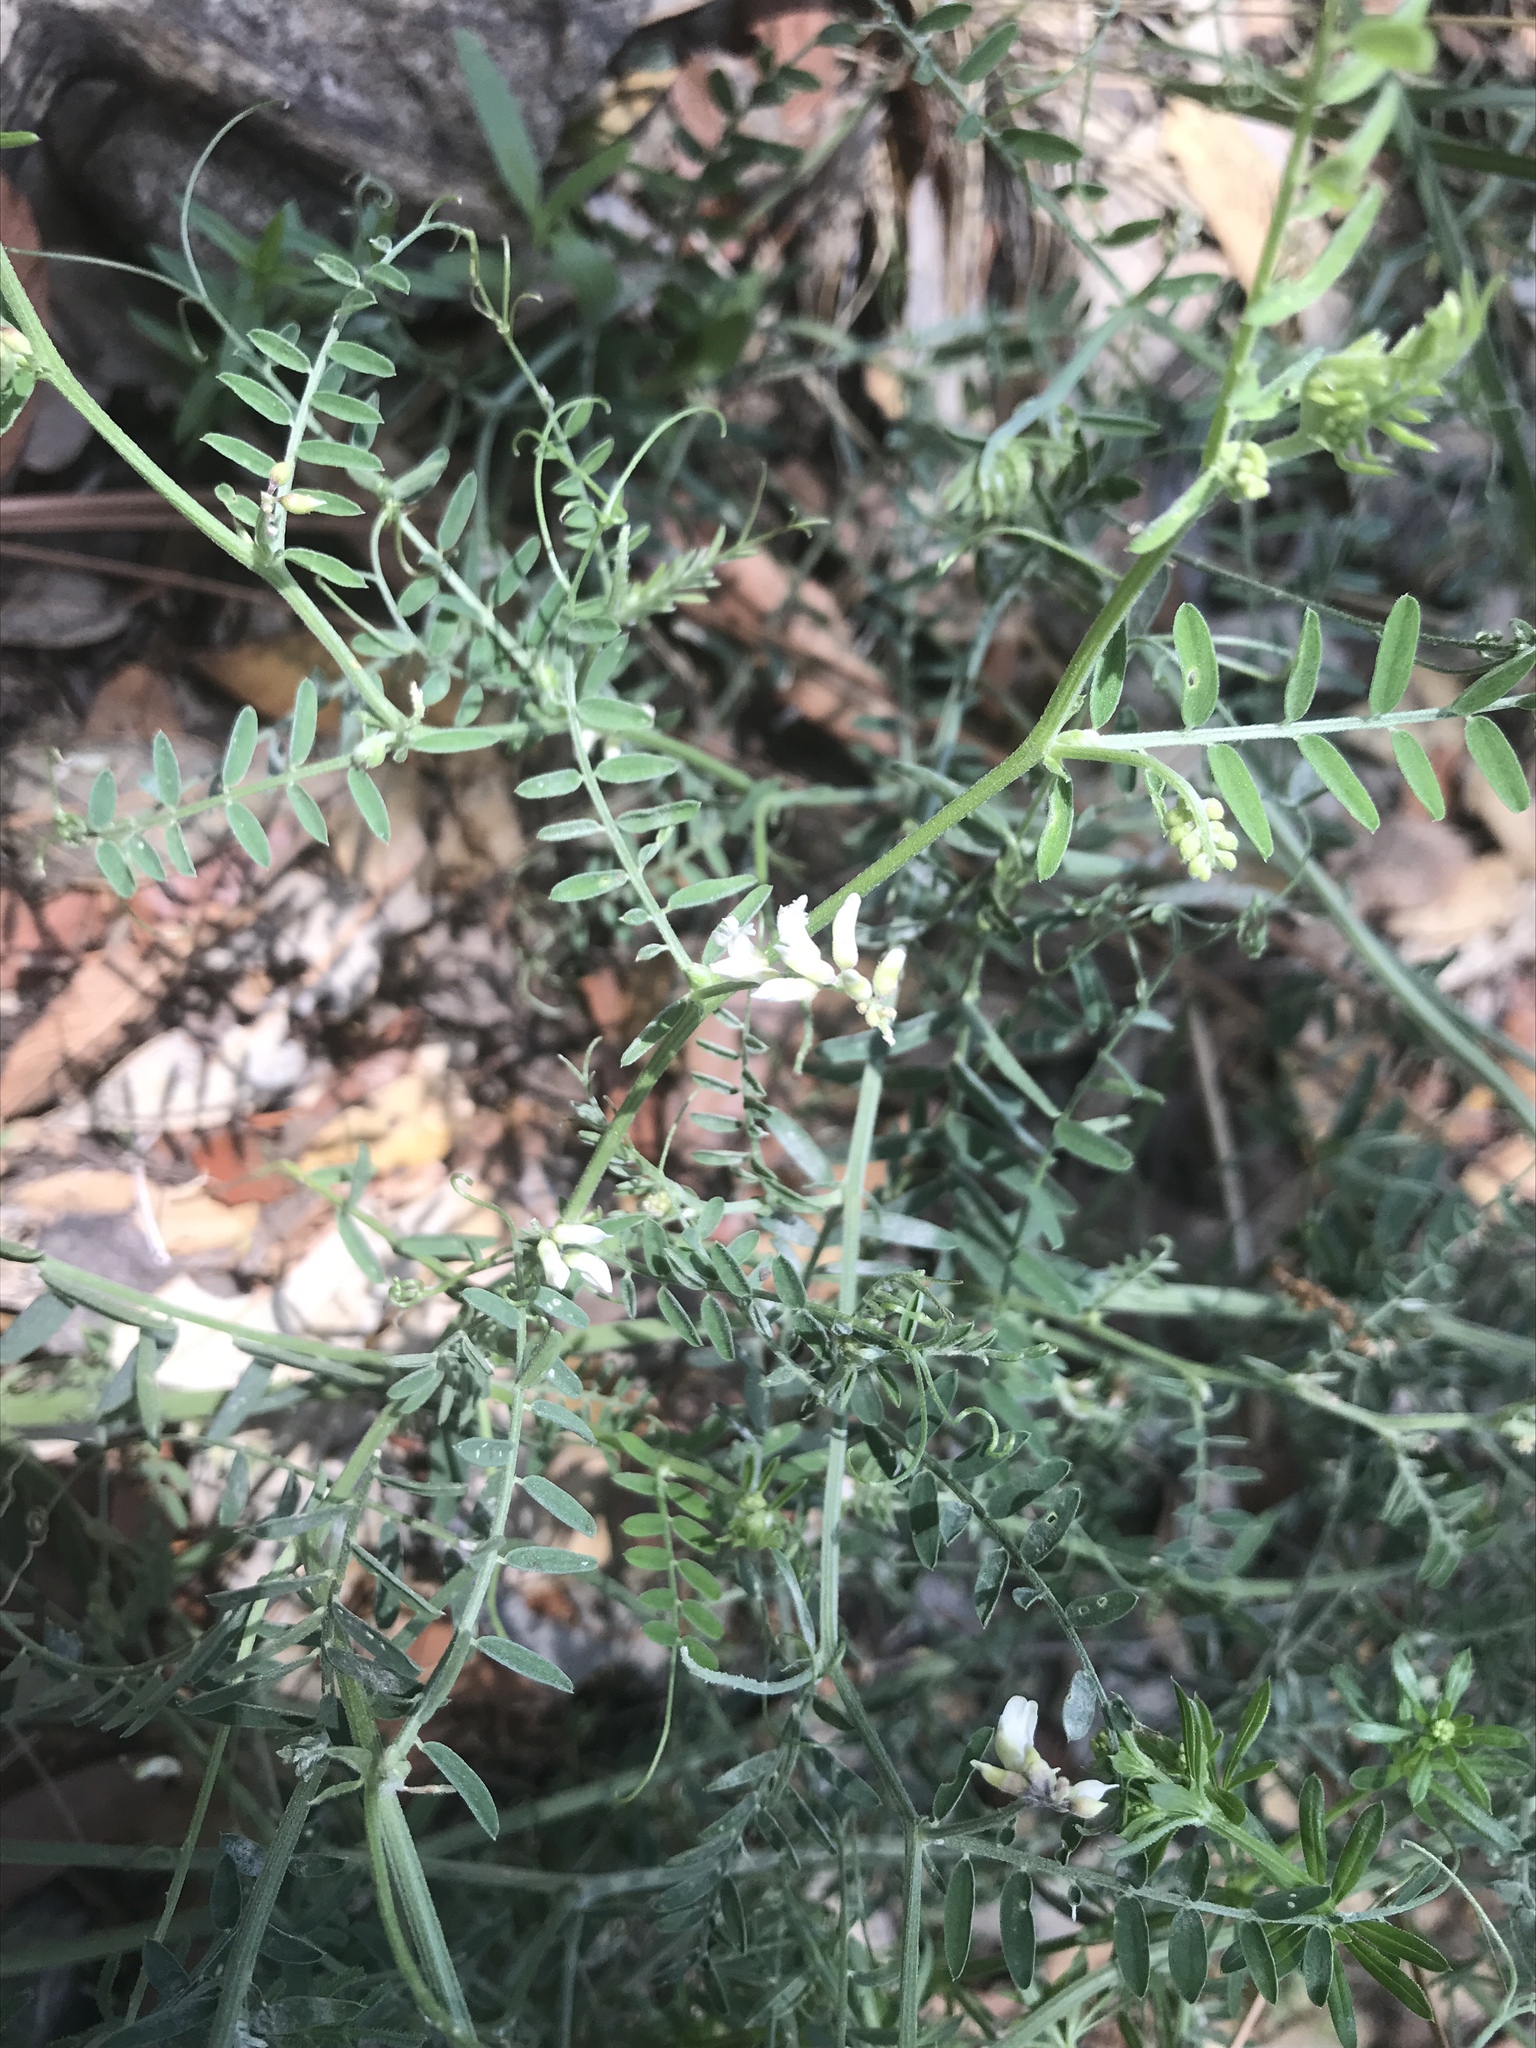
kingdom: Plantae
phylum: Tracheophyta
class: Magnoliopsida
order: Fabales
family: Fabaceae
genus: Vicia
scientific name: Vicia pulchella
